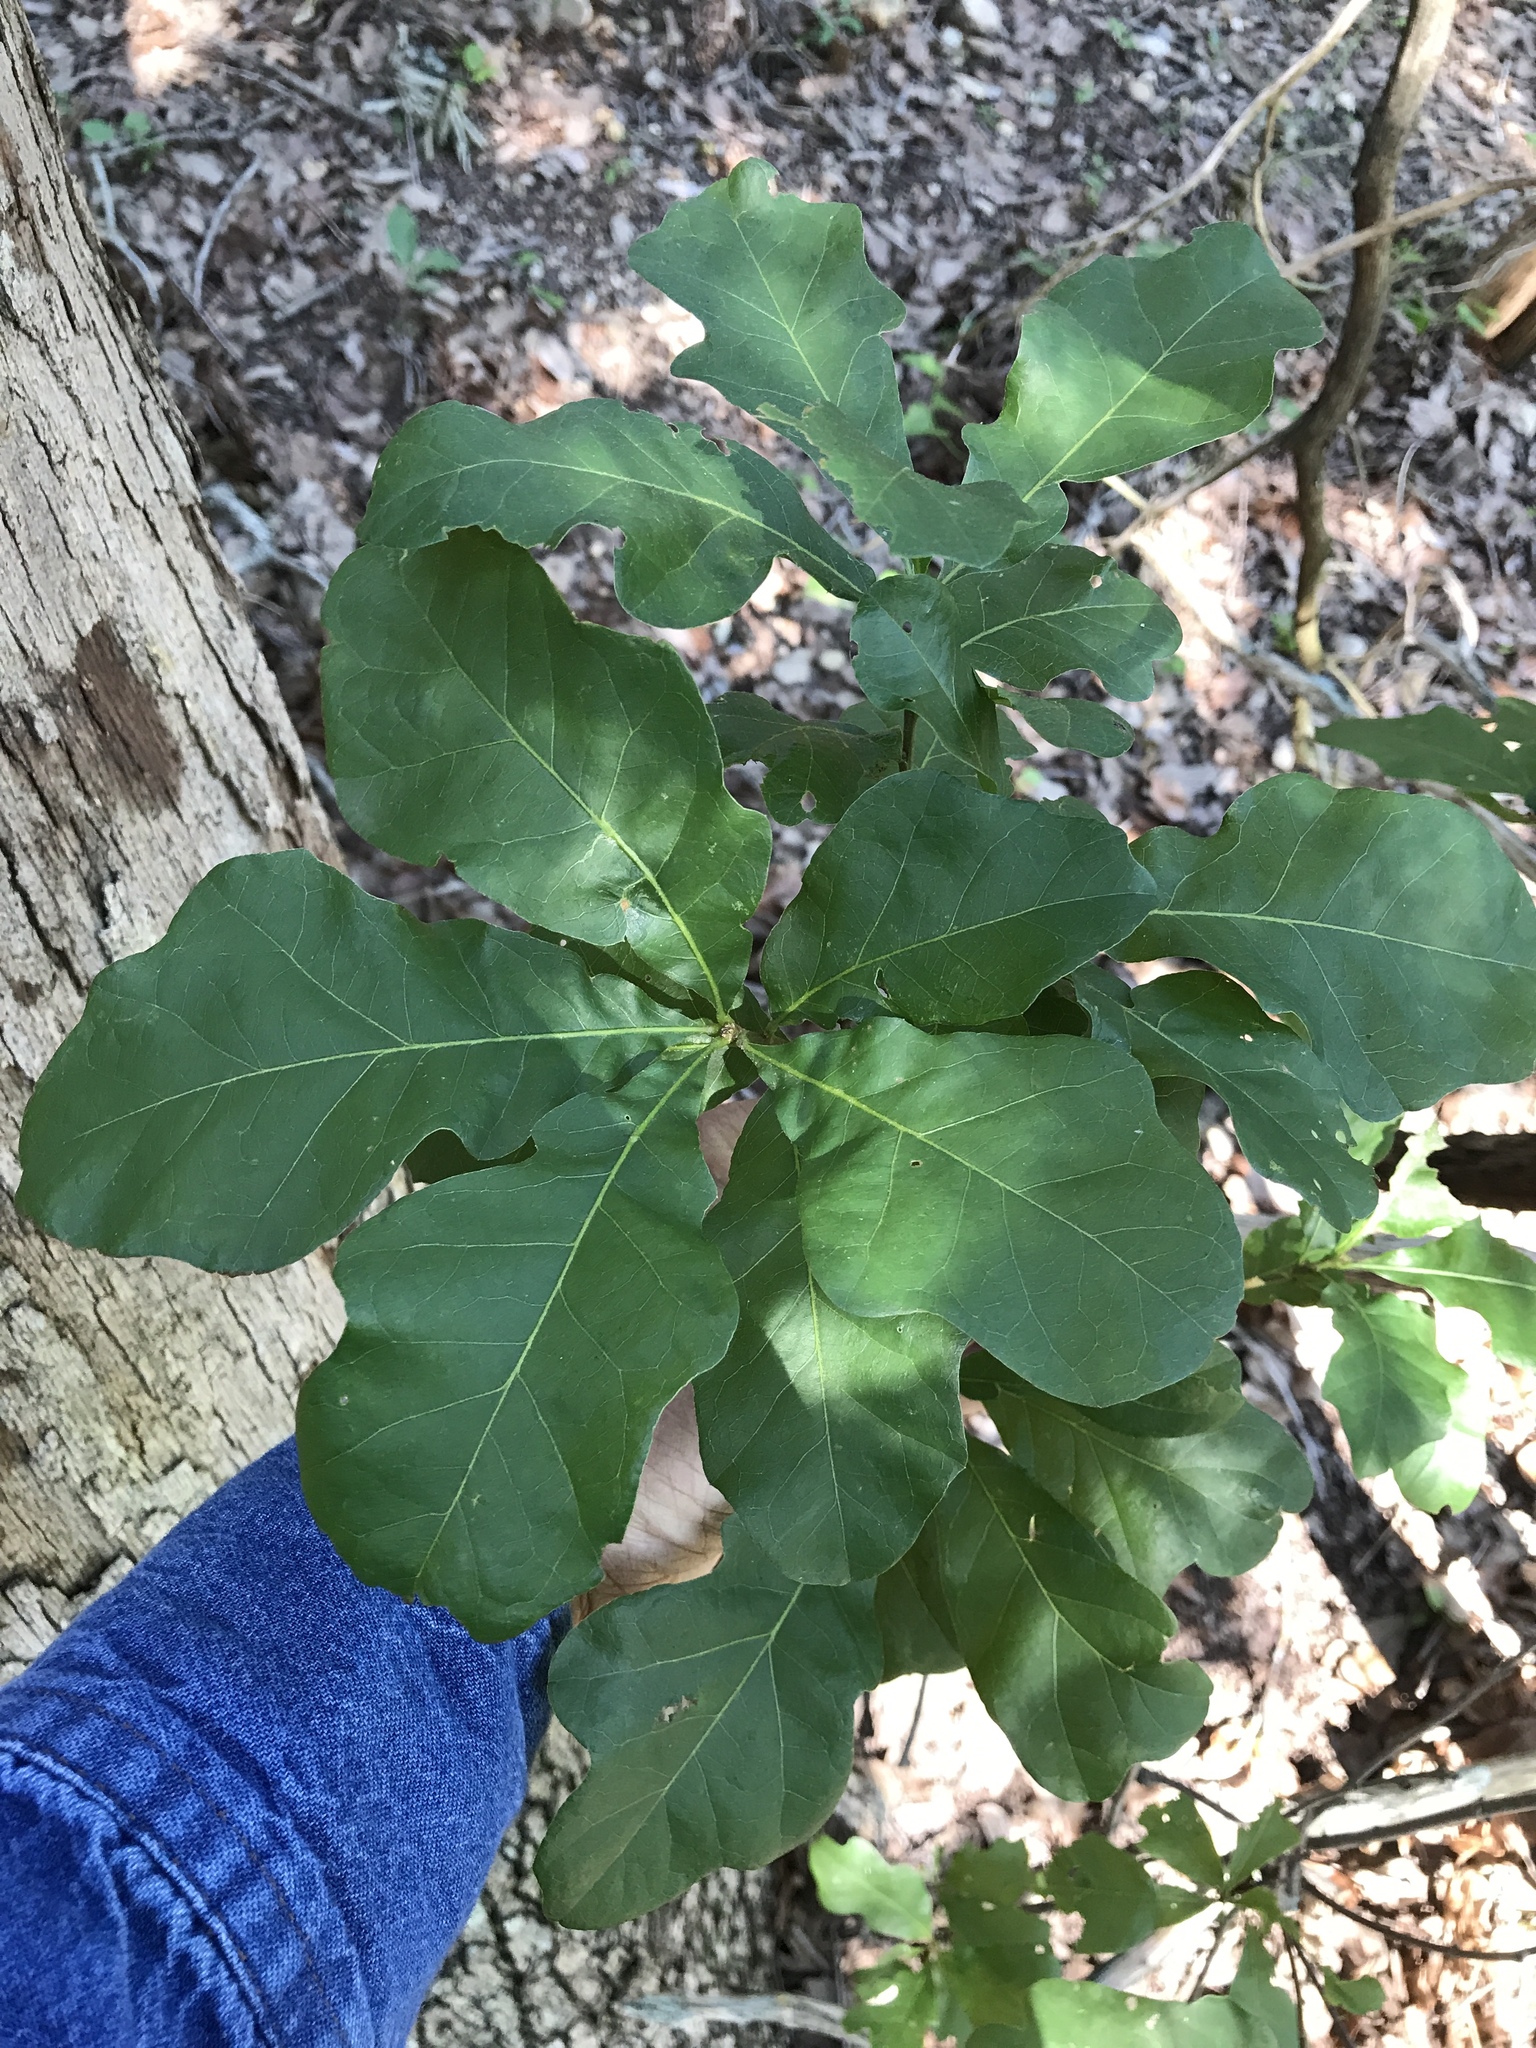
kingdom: Plantae
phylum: Tracheophyta
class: Magnoliopsida
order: Fagales
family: Fagaceae
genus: Quercus
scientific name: Quercus sinuata
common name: Durand oak
